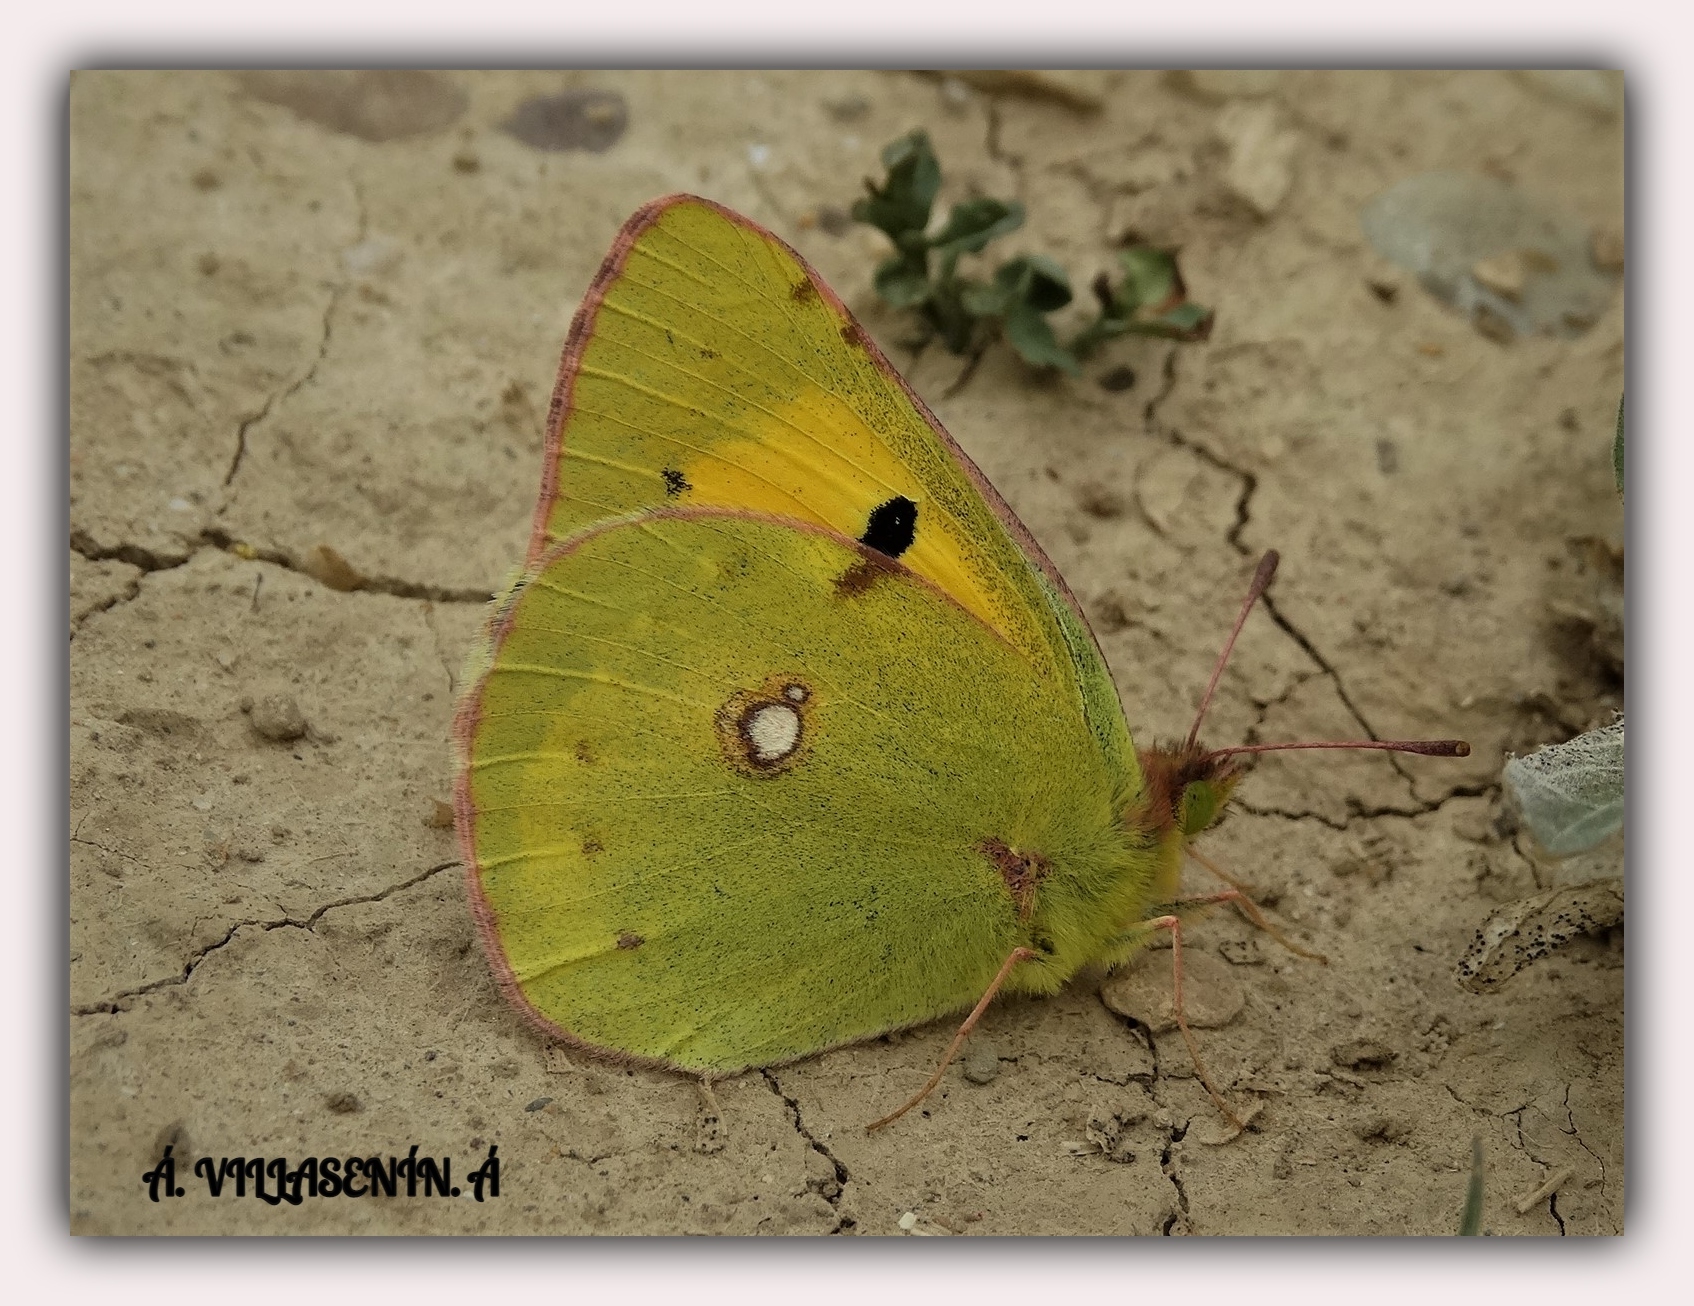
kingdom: Animalia
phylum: Arthropoda
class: Insecta
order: Lepidoptera
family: Pieridae
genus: Colias
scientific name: Colias croceus
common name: Clouded yellow
